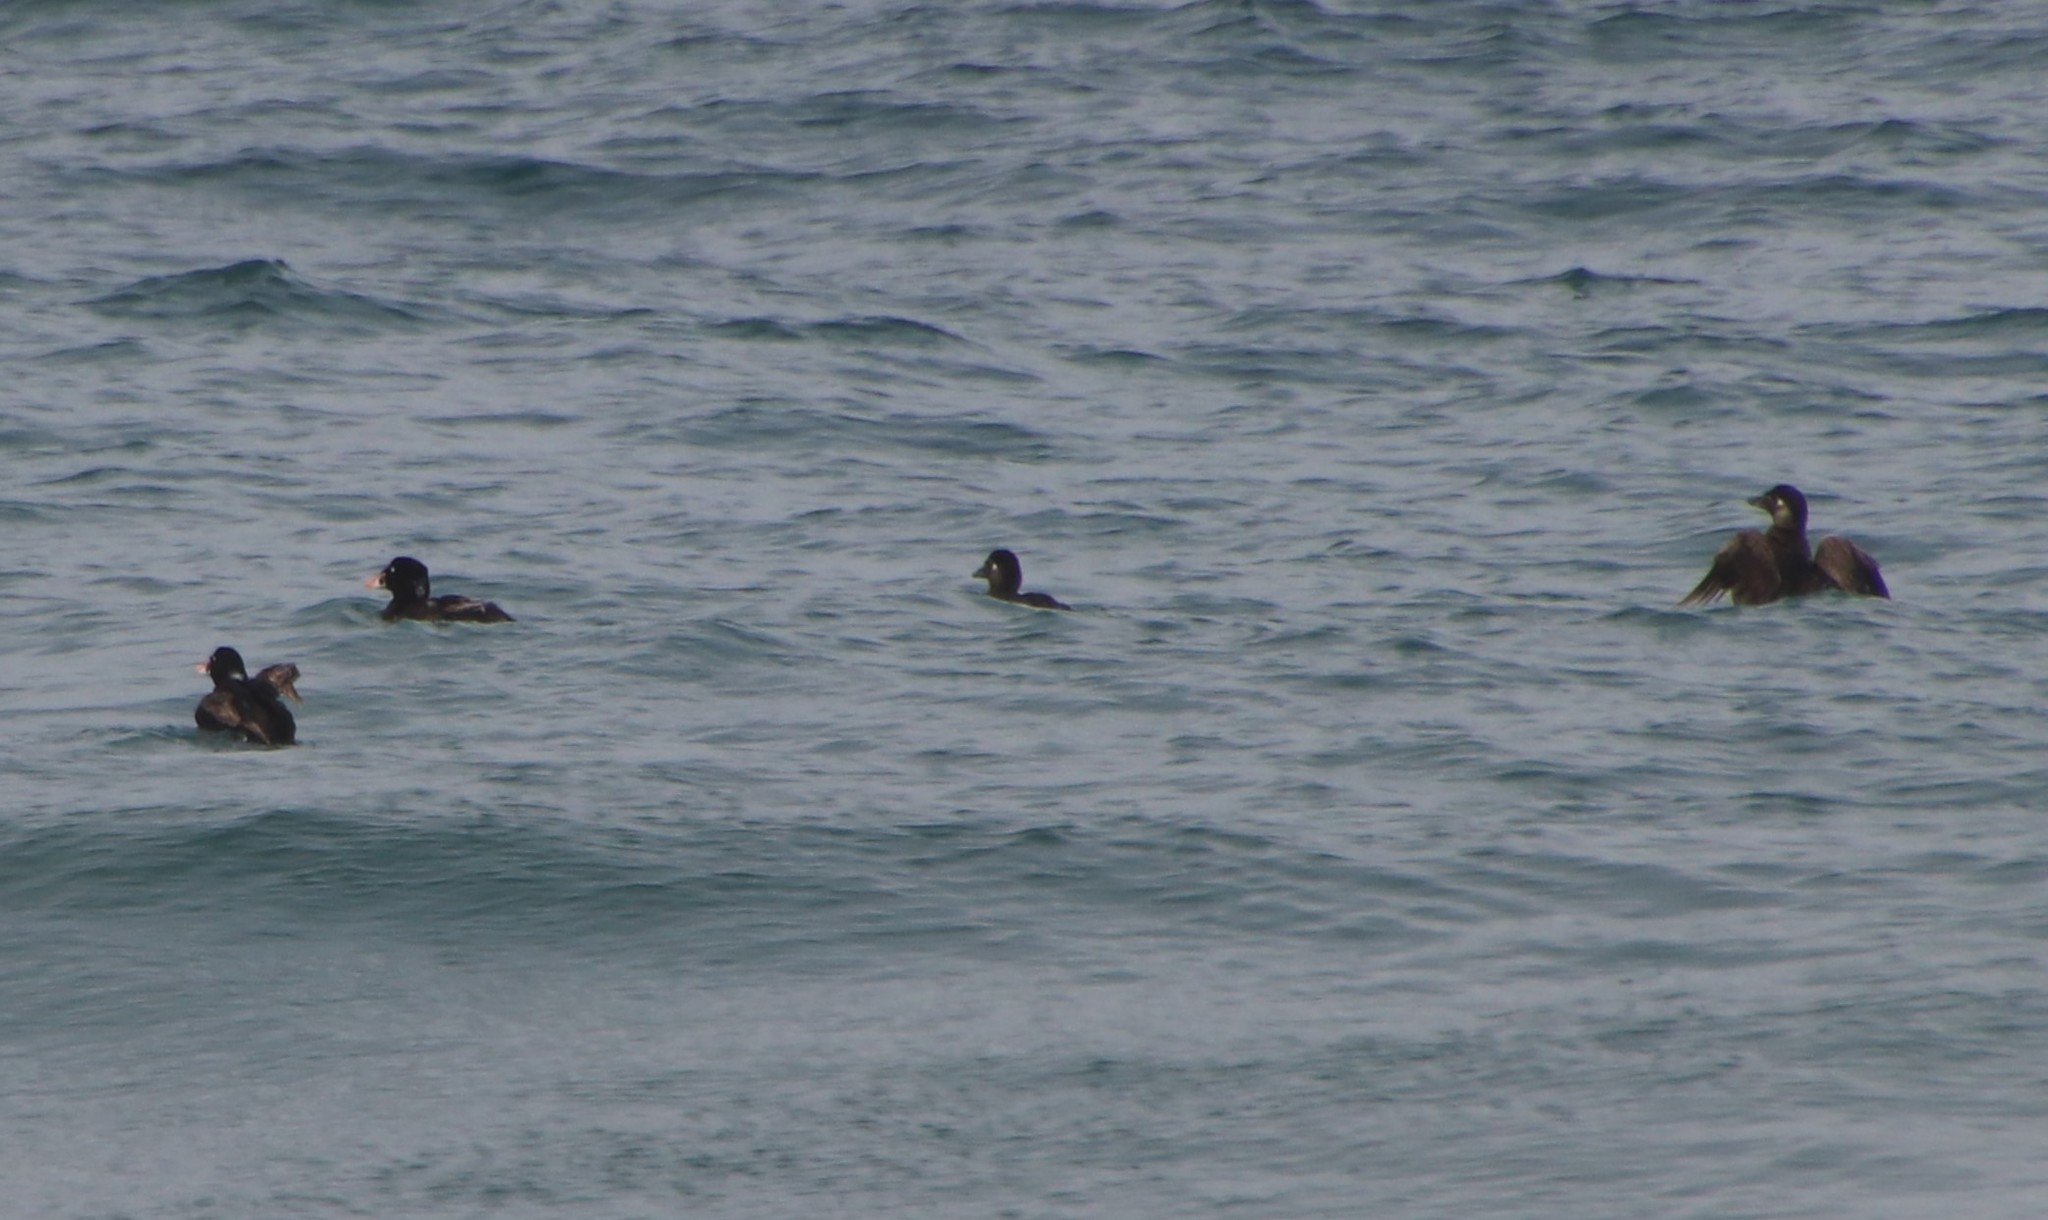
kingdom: Animalia
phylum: Chordata
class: Aves
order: Anseriformes
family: Anatidae
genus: Melanitta
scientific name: Melanitta perspicillata
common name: Surf scoter
